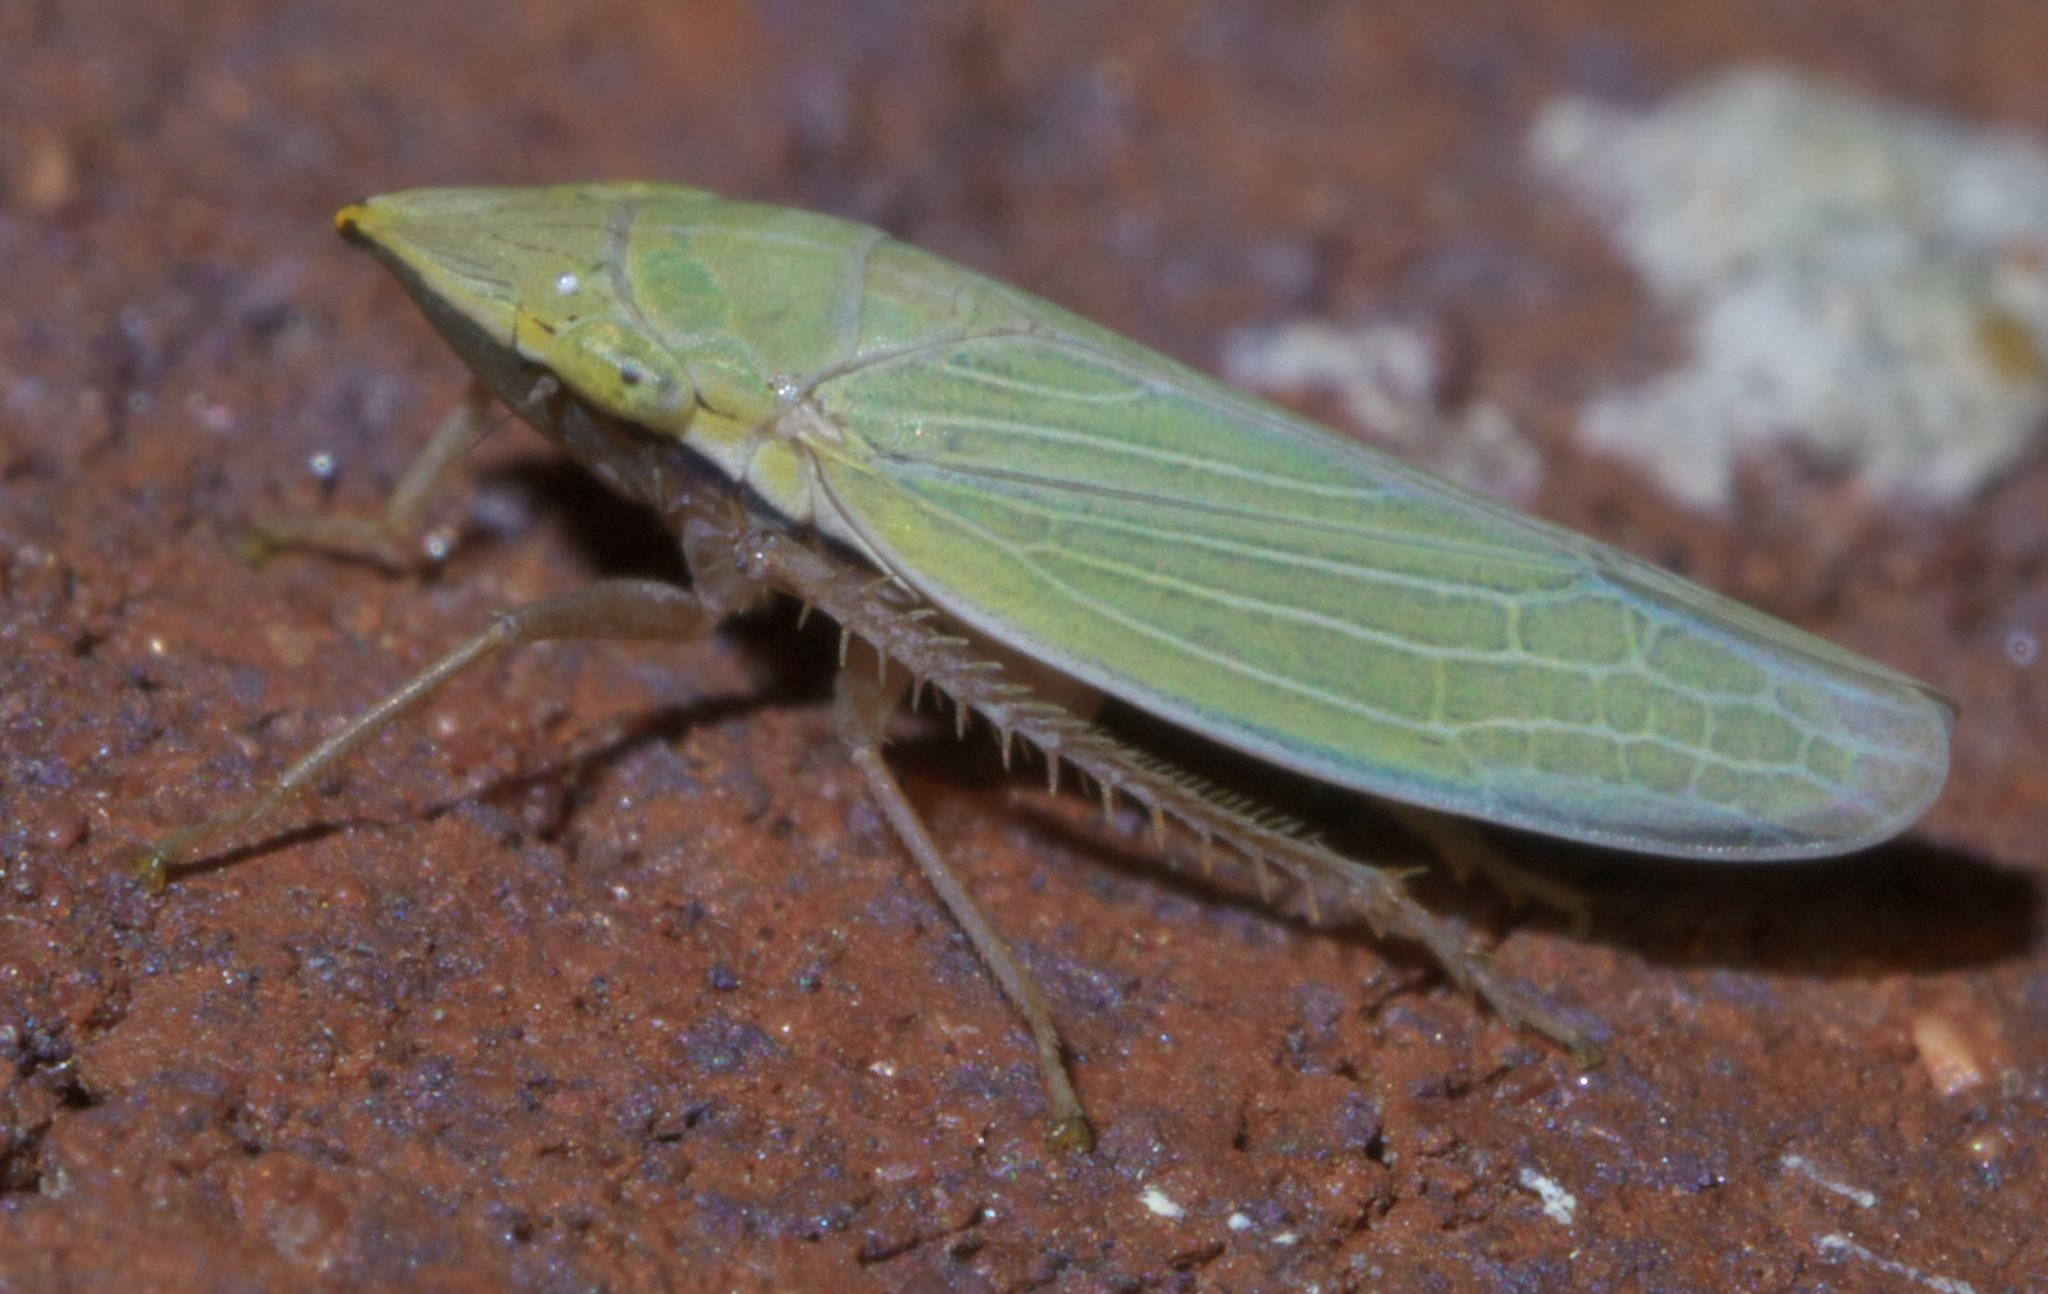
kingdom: Animalia
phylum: Arthropoda
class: Insecta
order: Hemiptera
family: Cicadellidae
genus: Draeculacephala
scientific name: Draeculacephala antica
